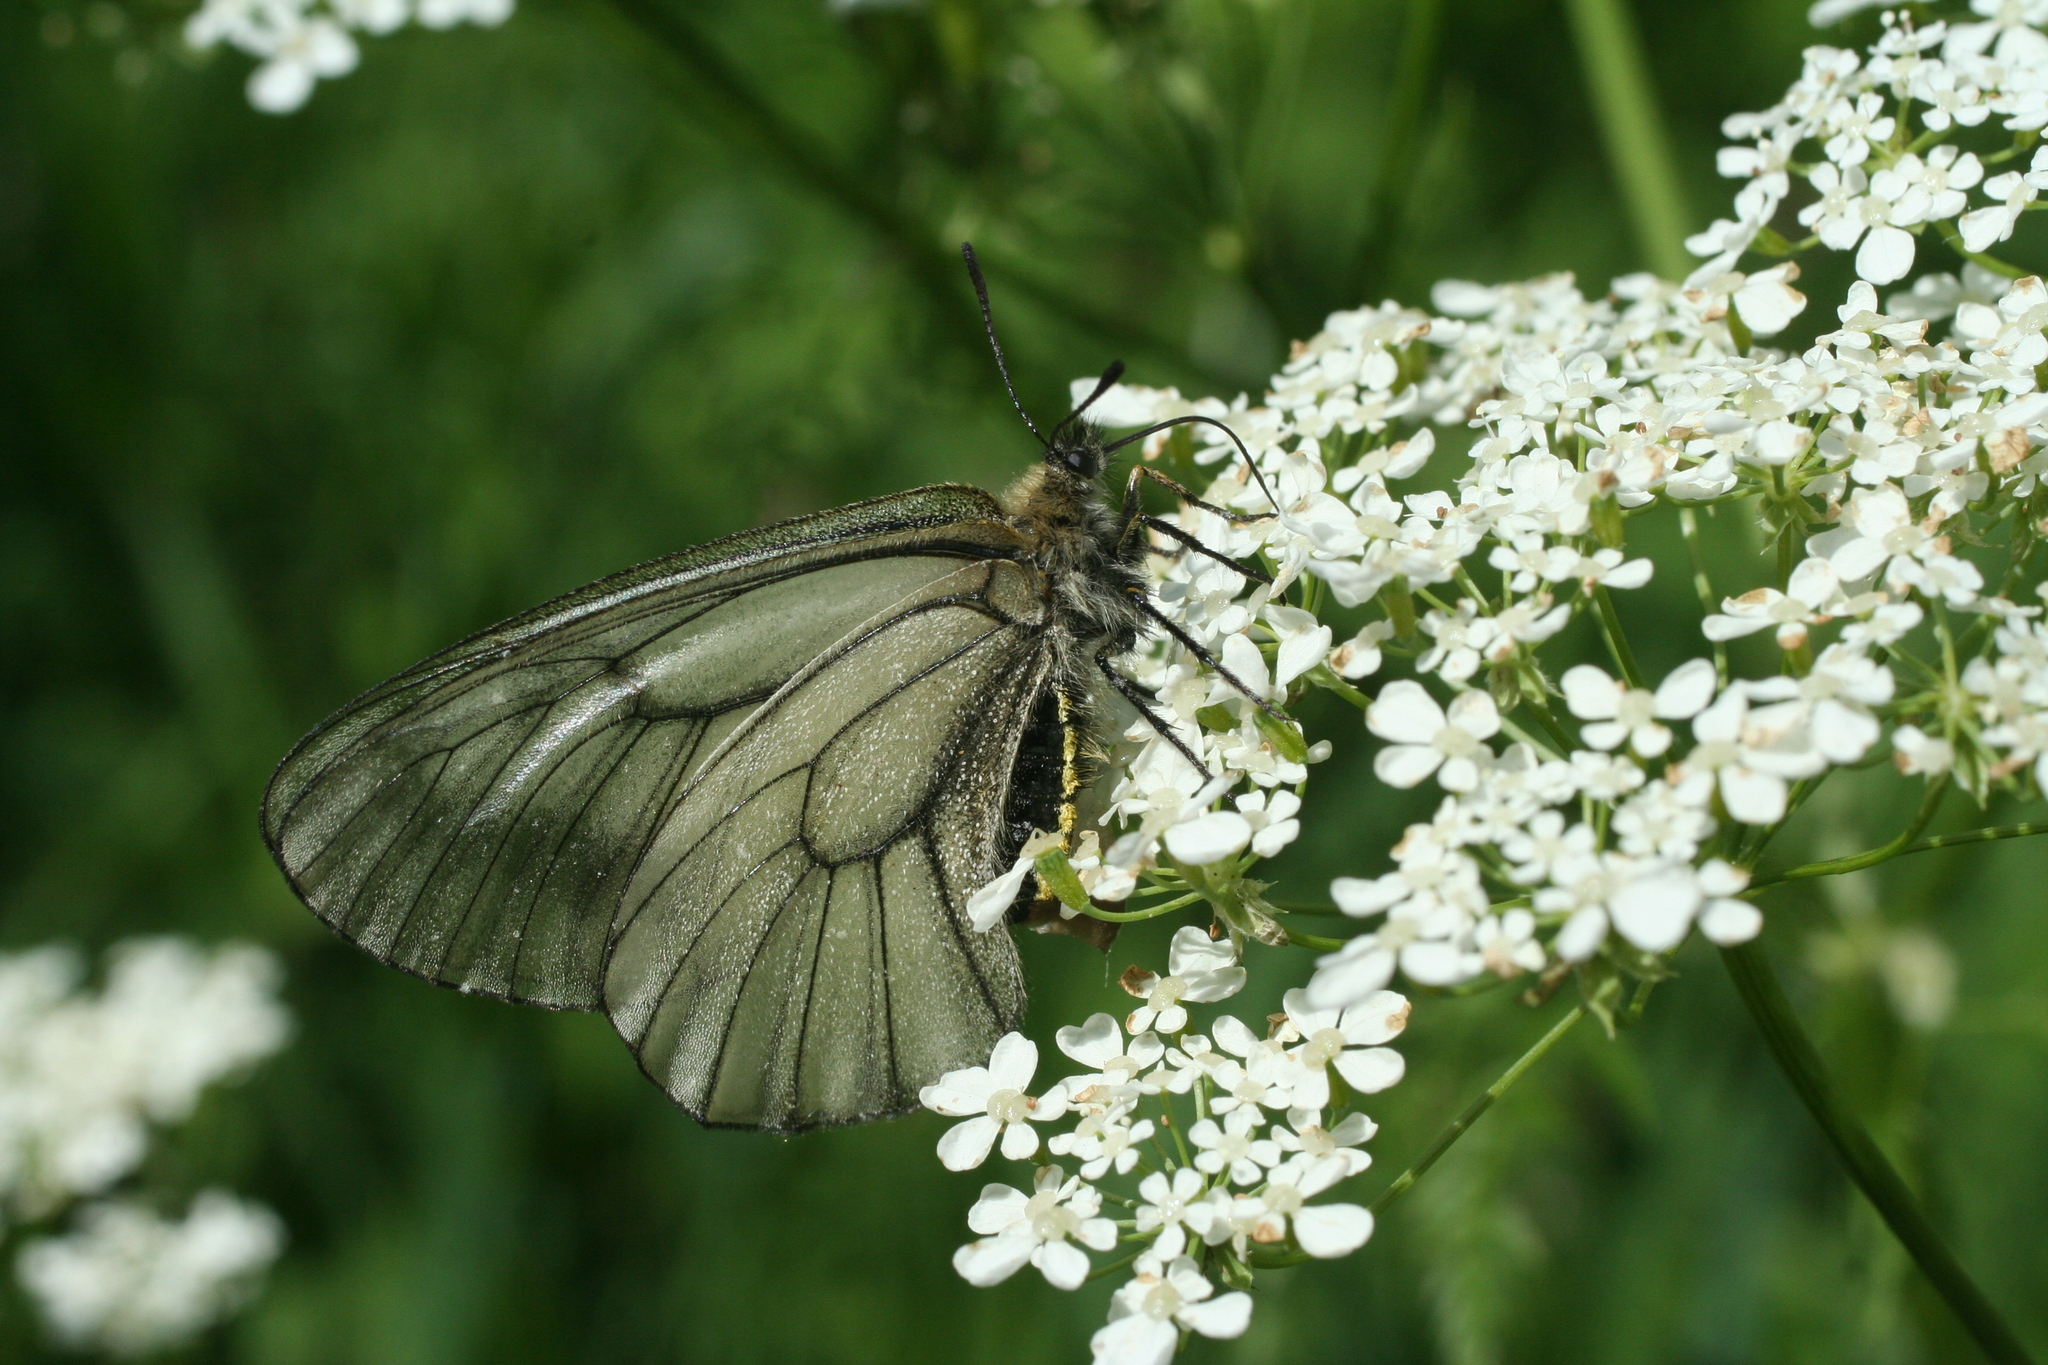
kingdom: Animalia
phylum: Arthropoda
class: Insecta
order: Lepidoptera
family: Papilionidae
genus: Parnassius
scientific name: Parnassius stubbendorfii
